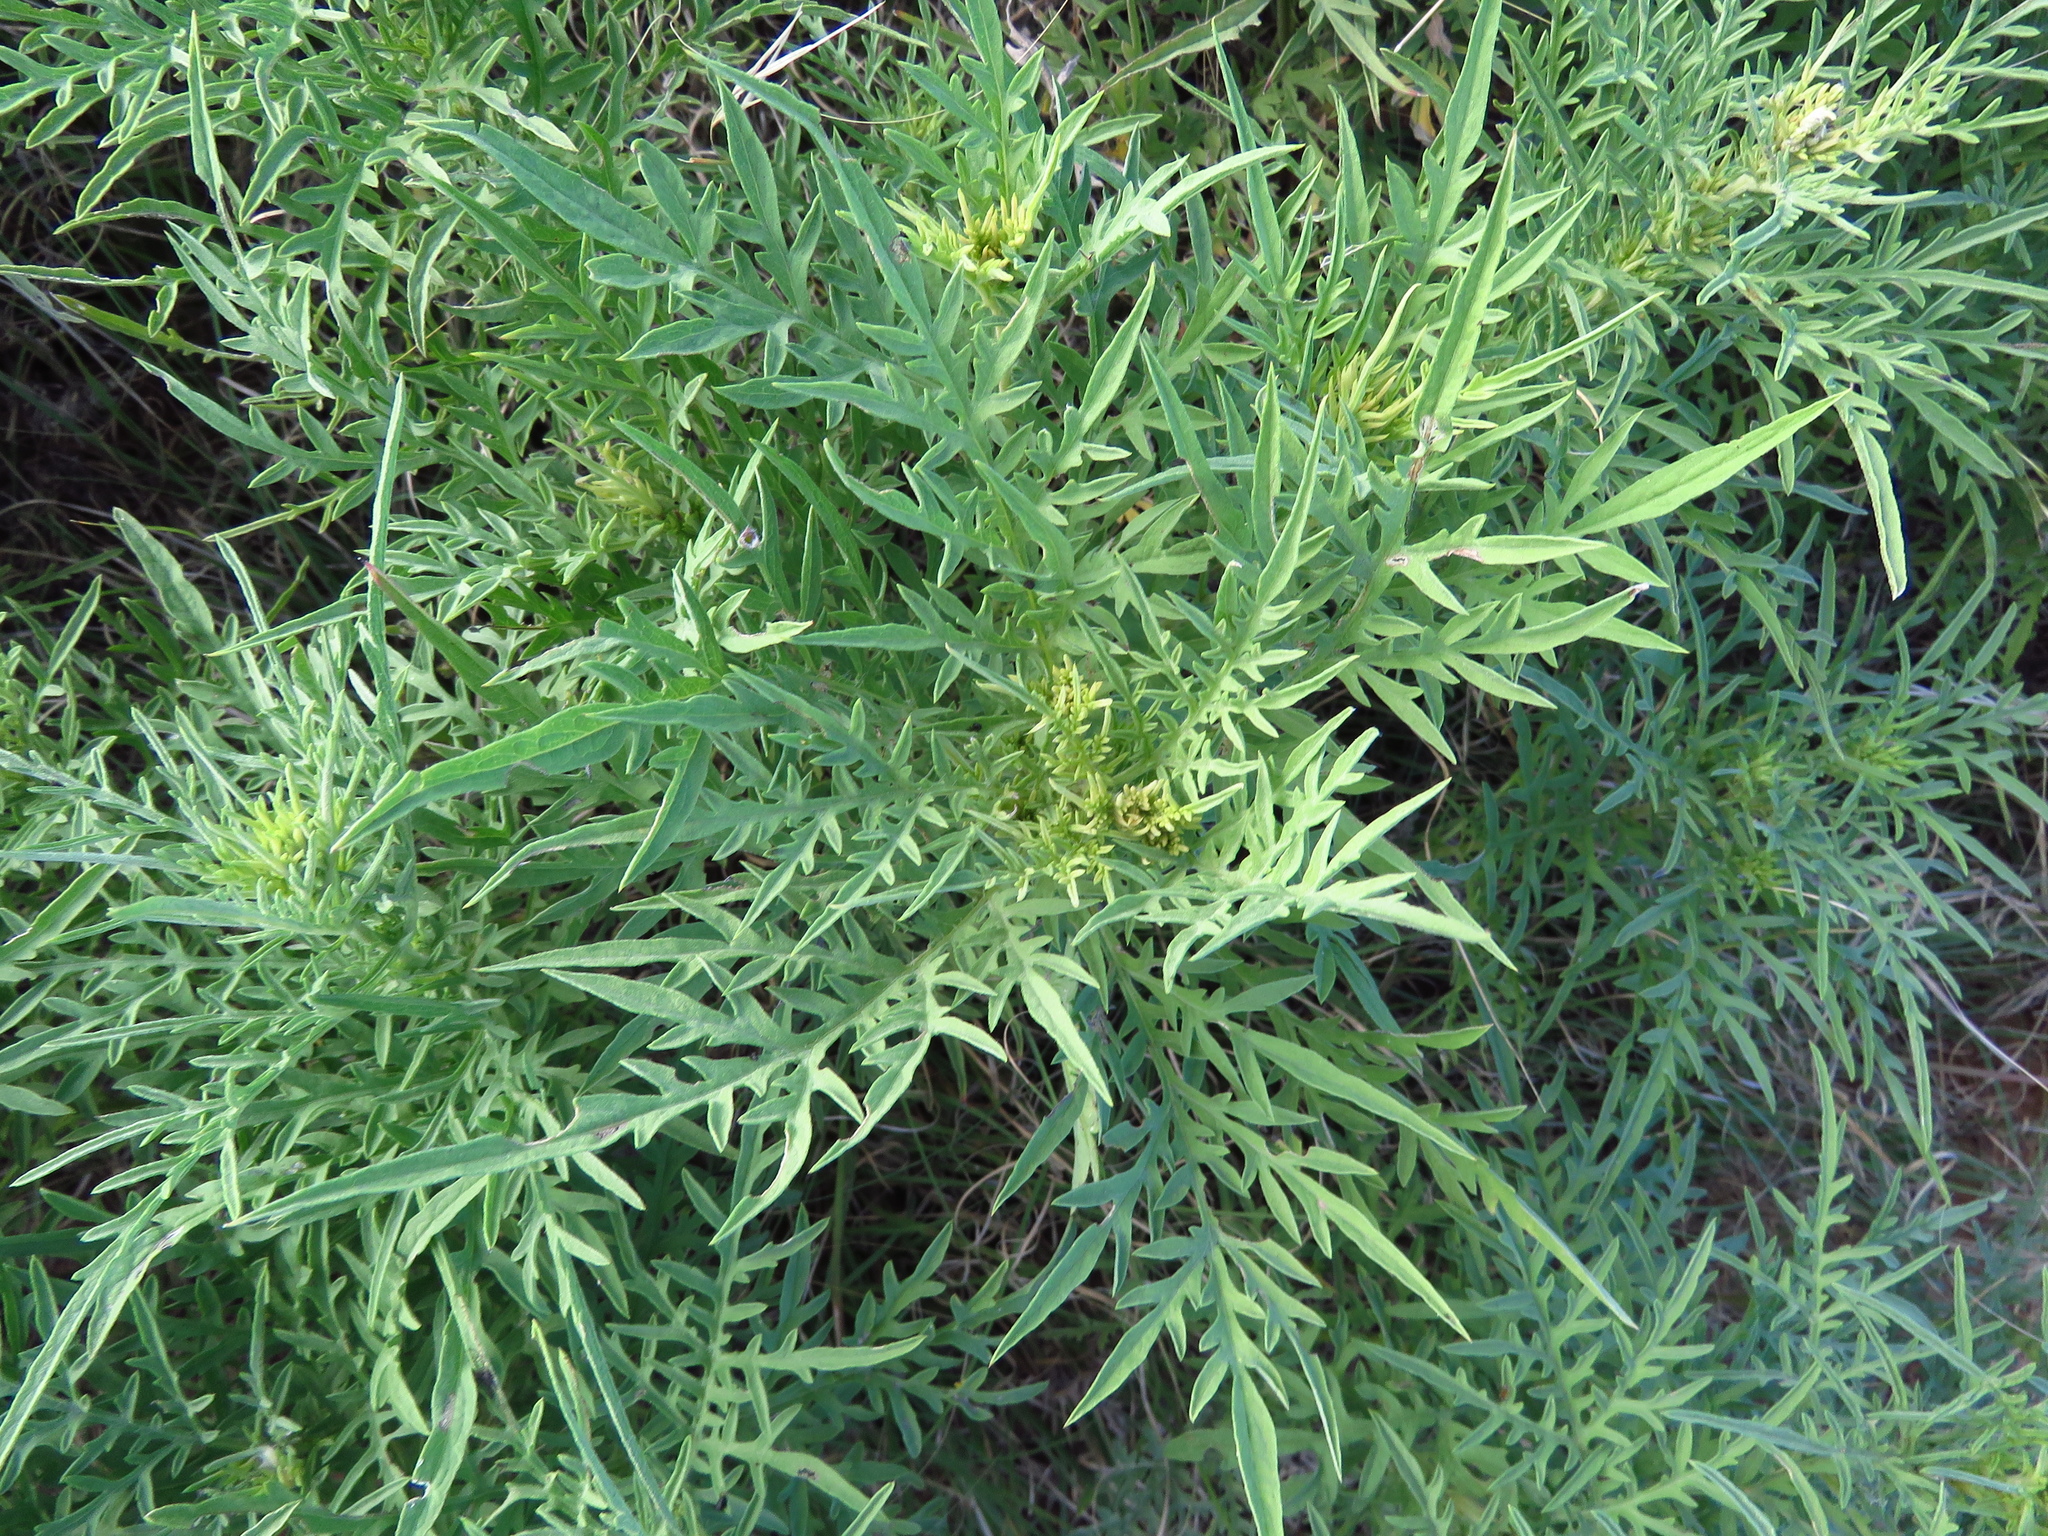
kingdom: Plantae
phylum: Tracheophyta
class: Magnoliopsida
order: Asterales
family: Asteraceae
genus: Ambrosia
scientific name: Ambrosia psilostachya
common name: Perennial ragweed
